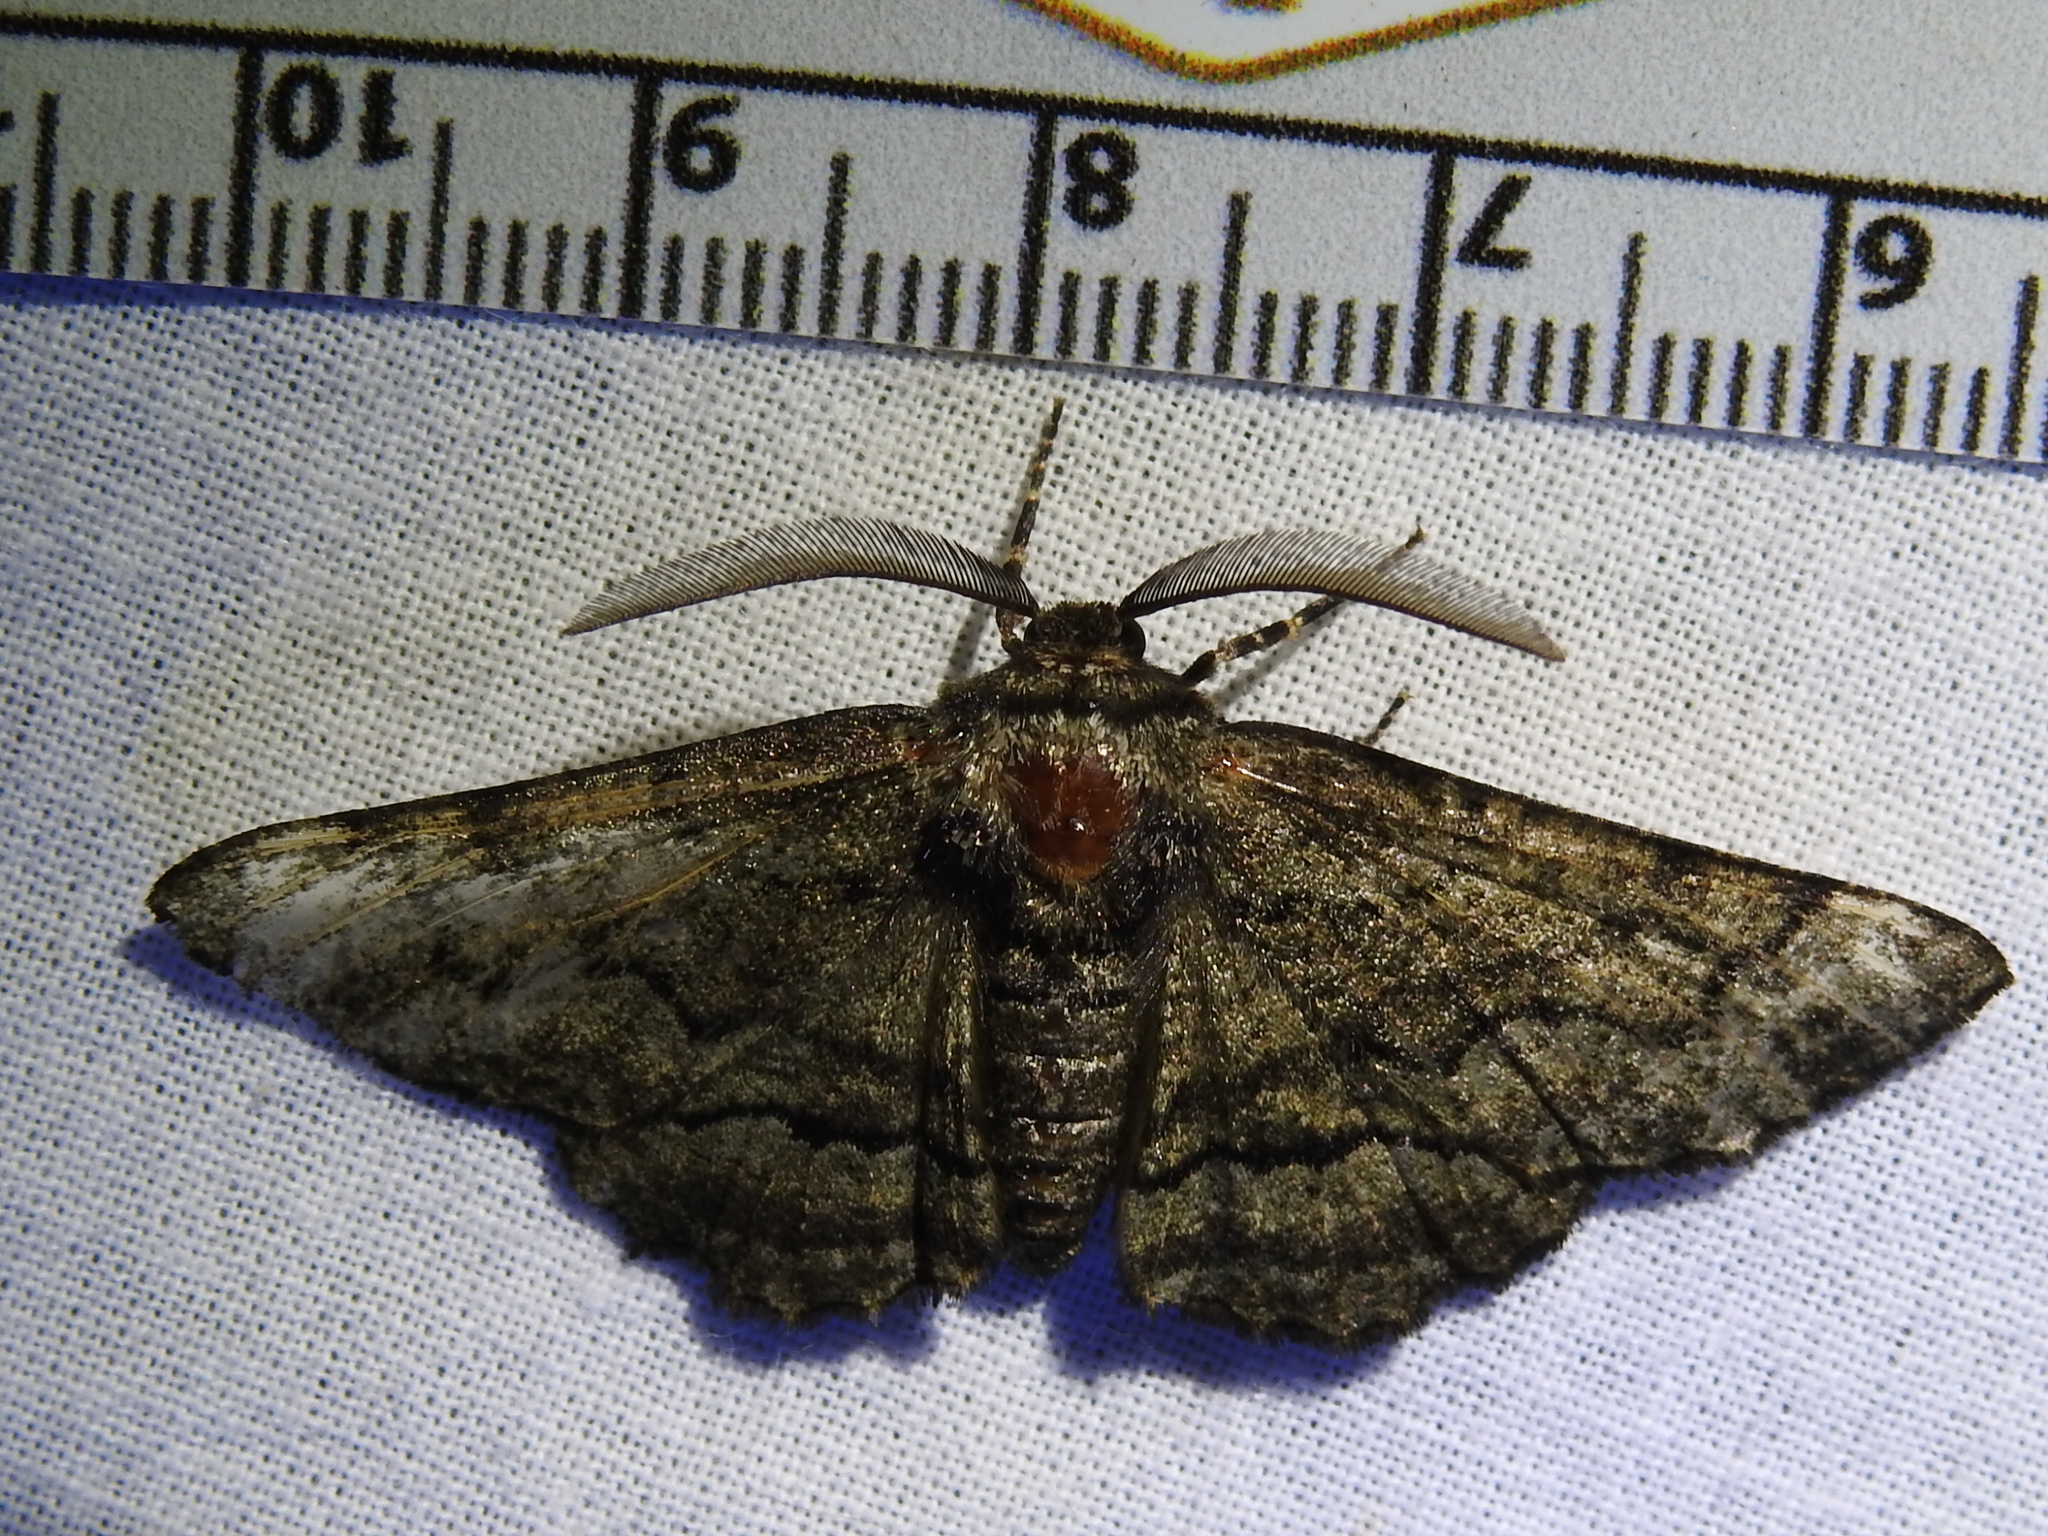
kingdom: Animalia
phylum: Arthropoda
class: Insecta
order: Lepidoptera
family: Geometridae
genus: Phaeoura
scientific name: Phaeoura quernaria
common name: Oak beauty
